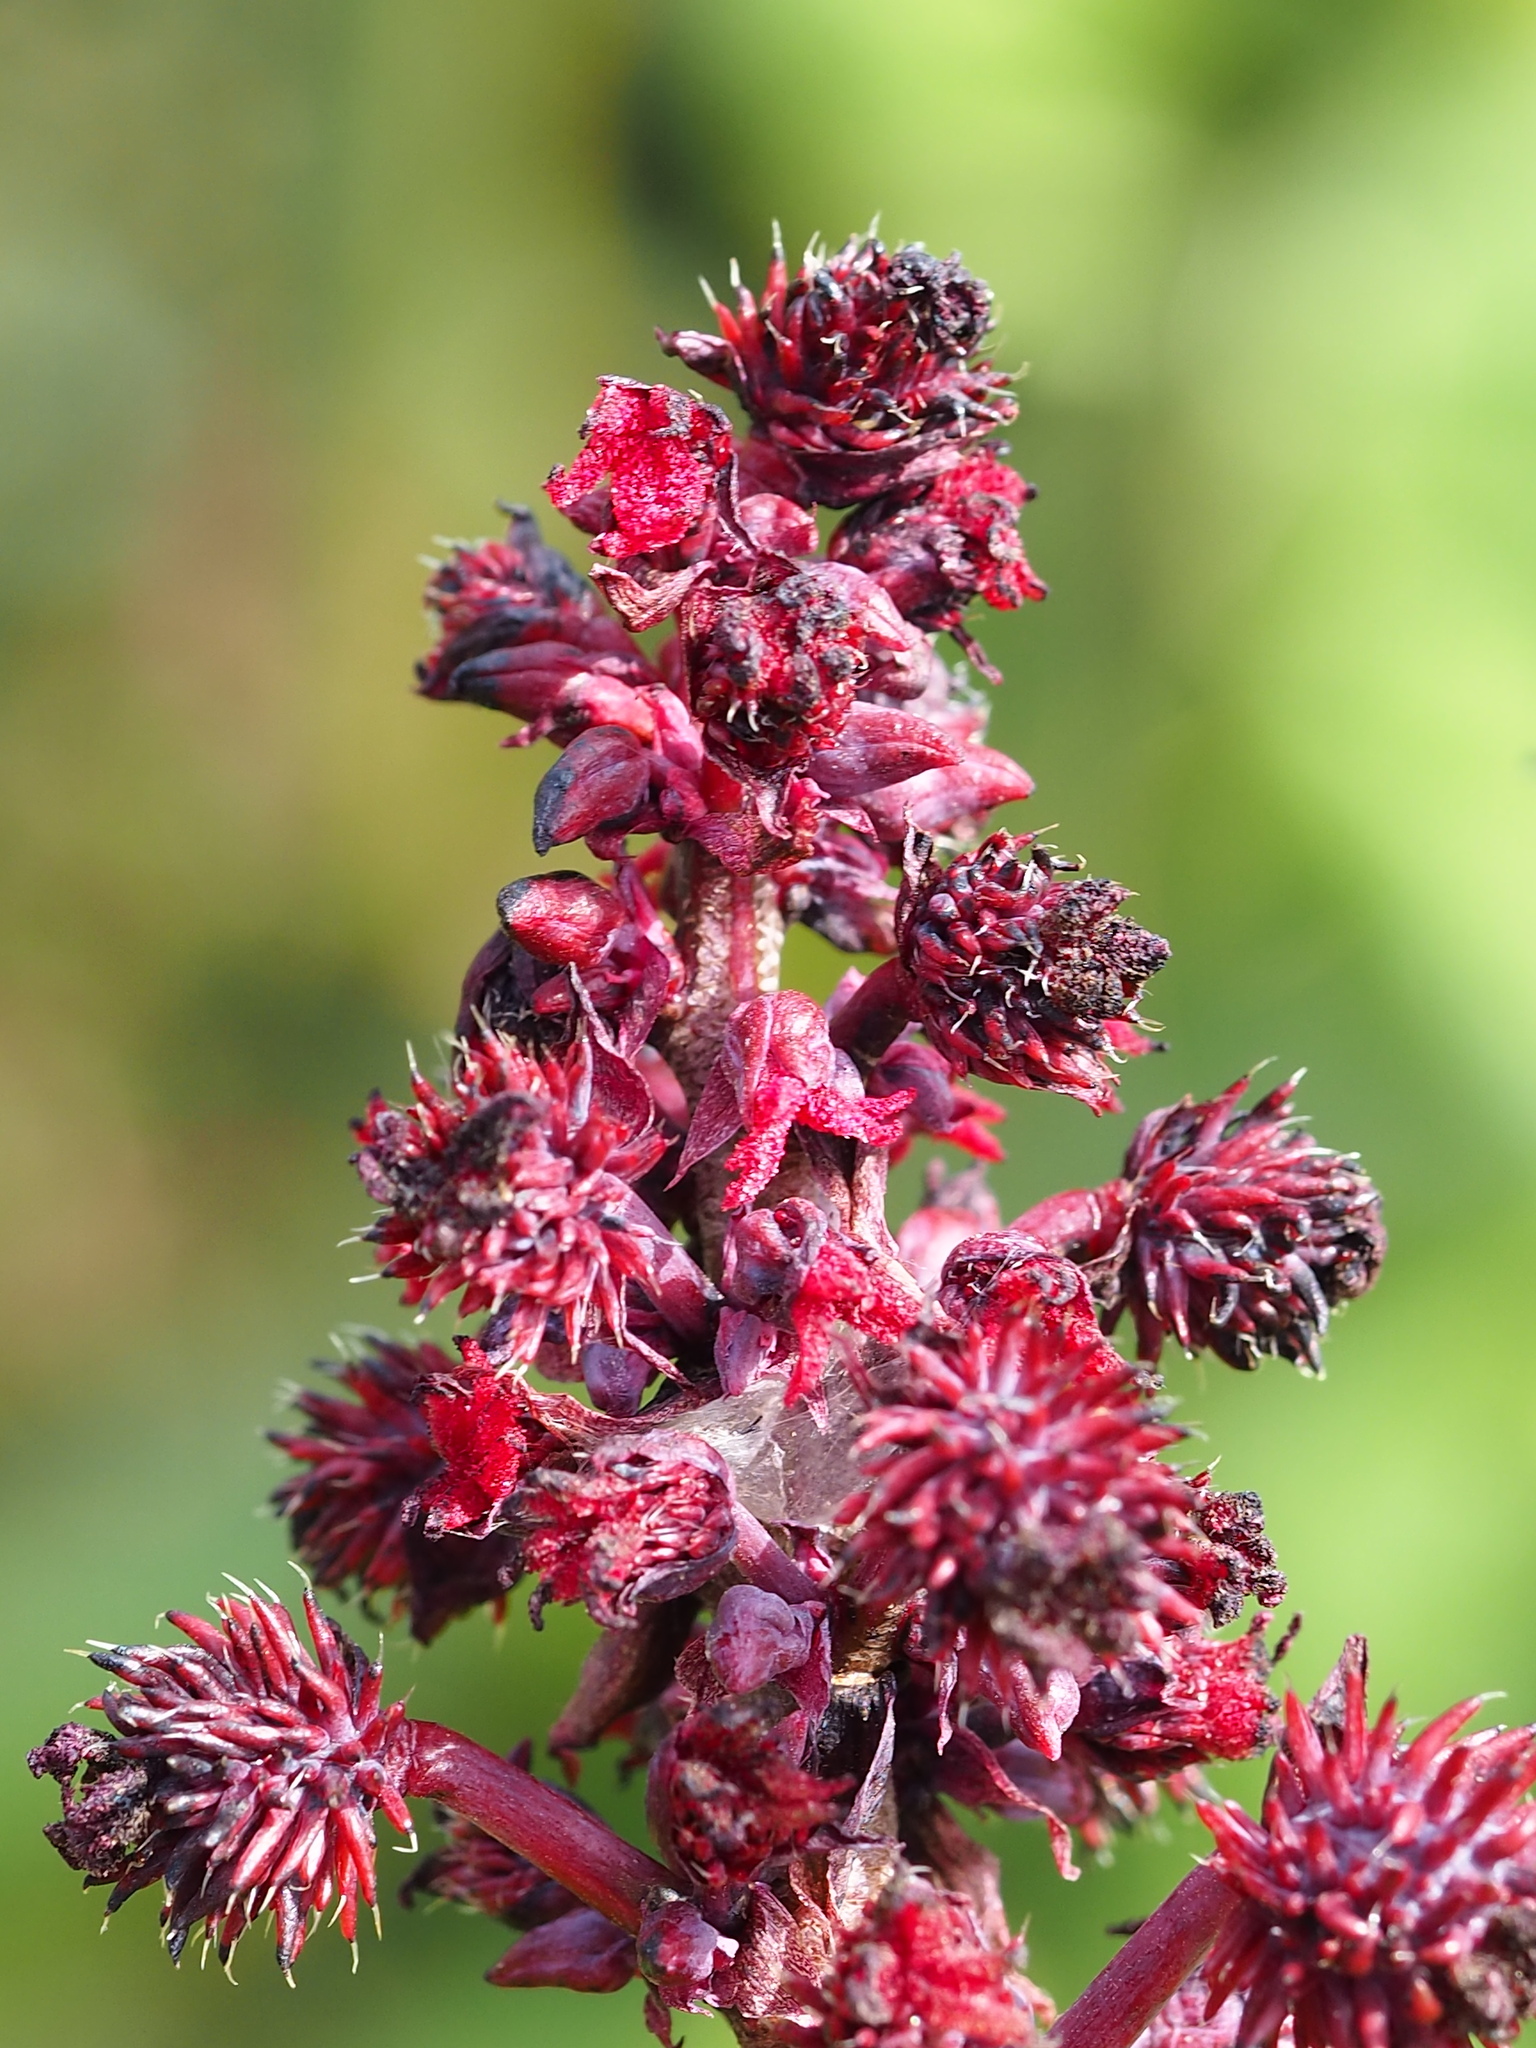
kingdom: Plantae
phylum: Tracheophyta
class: Magnoliopsida
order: Malpighiales
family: Euphorbiaceae
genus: Ricinus
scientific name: Ricinus communis
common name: Castor-oil-plant
